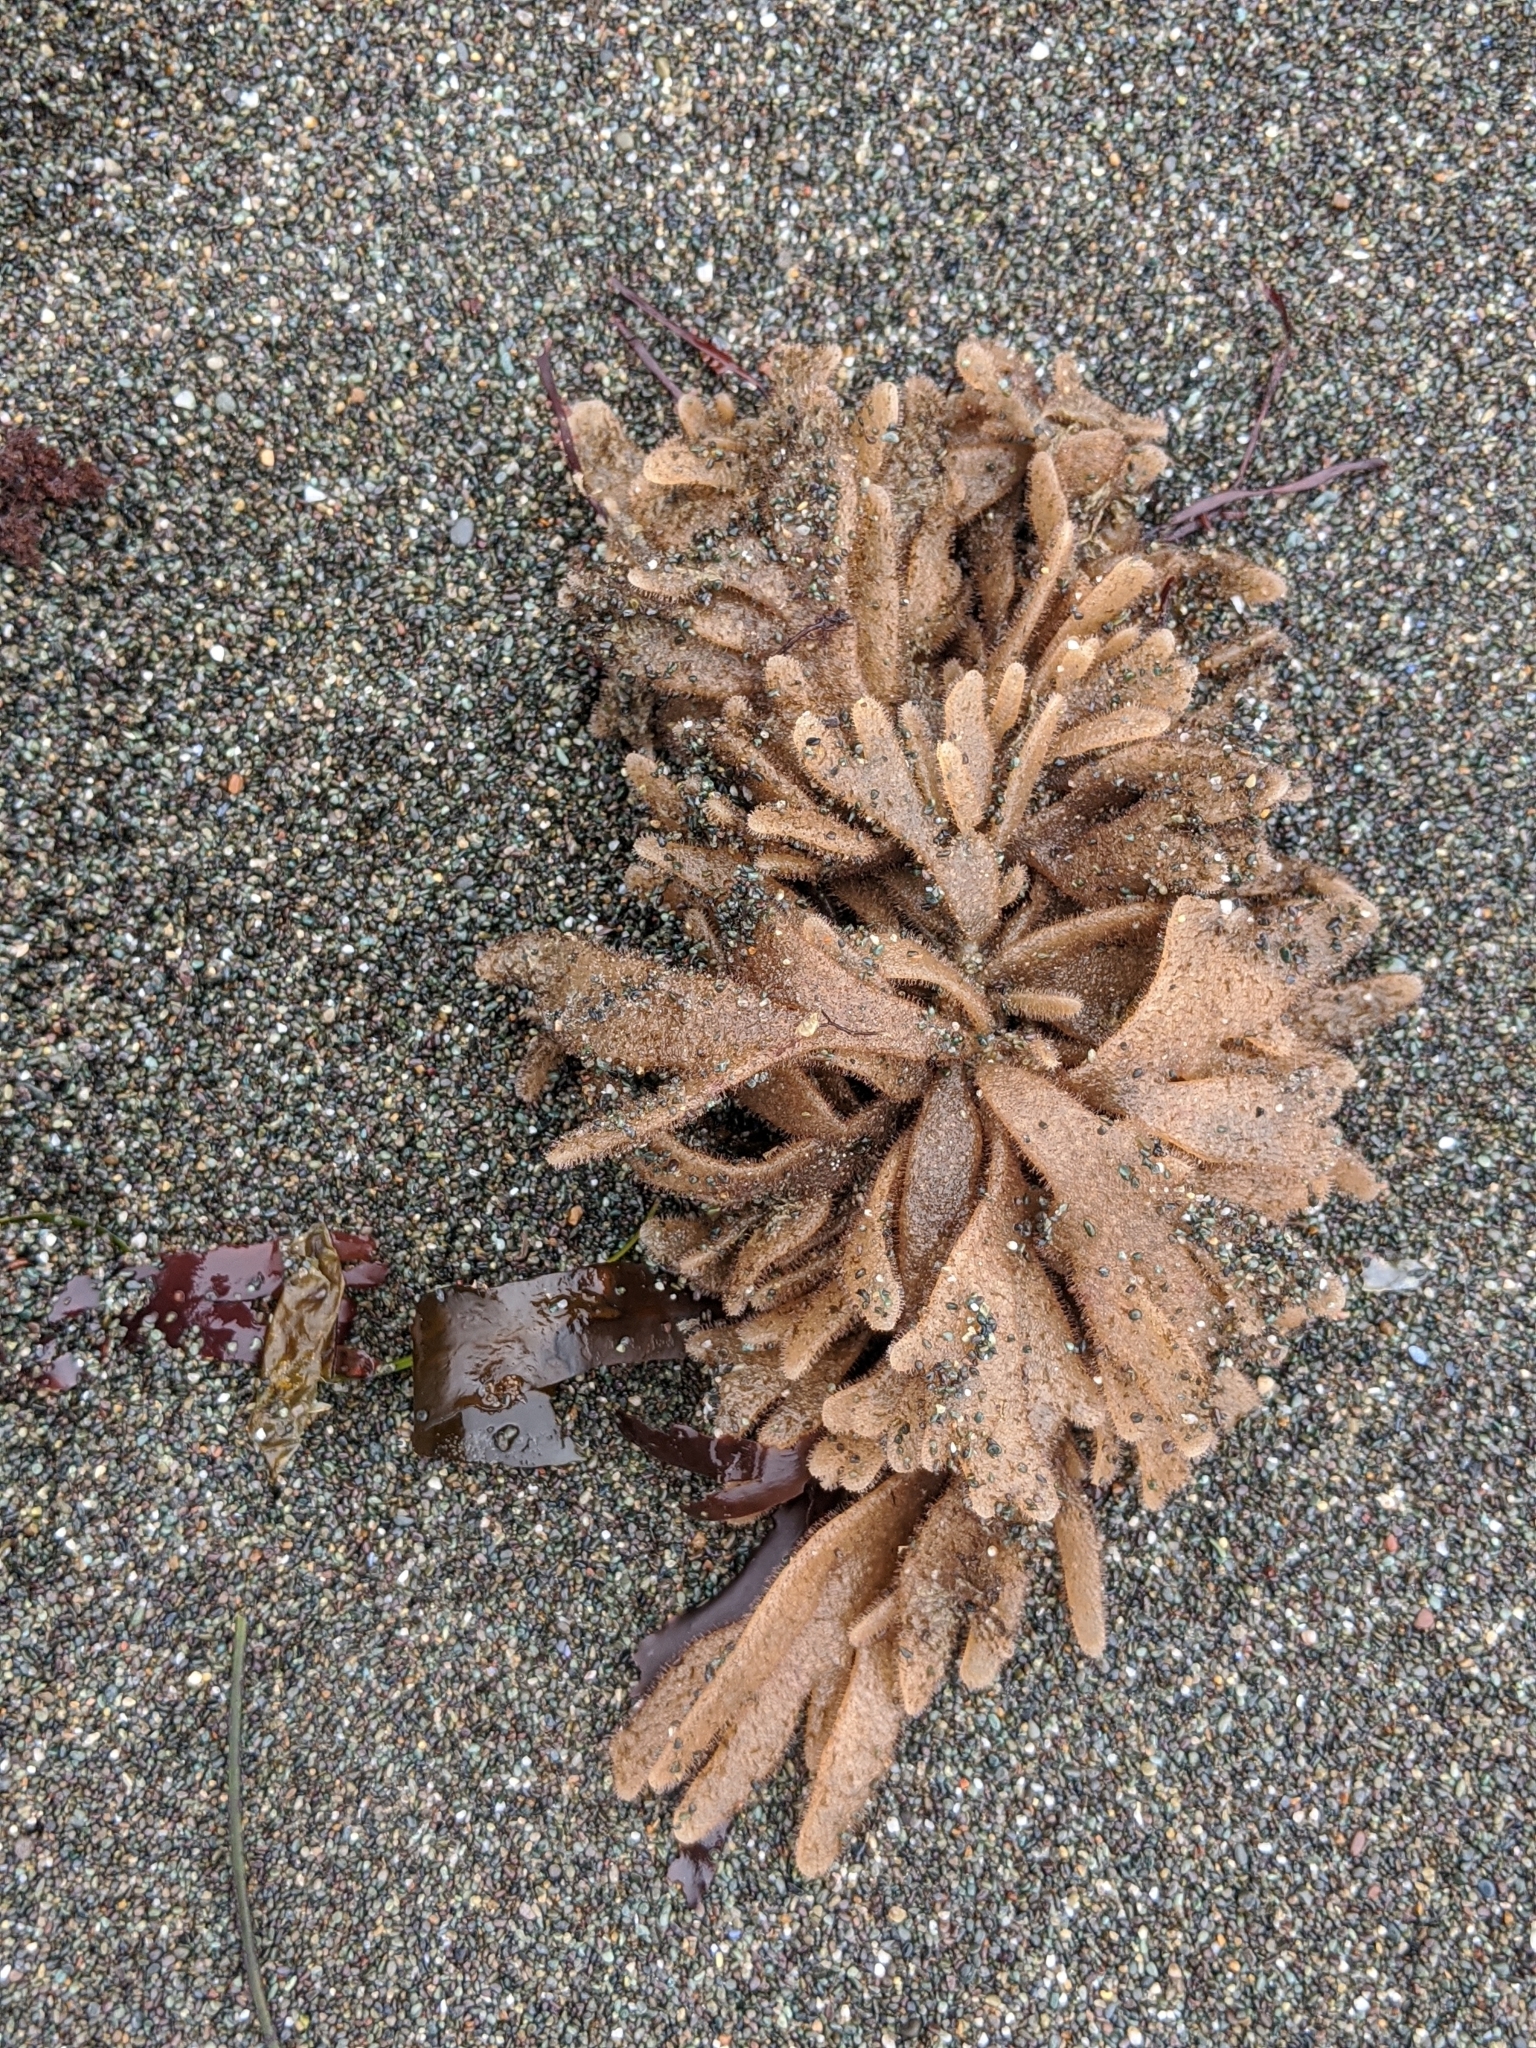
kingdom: Animalia
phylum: Bryozoa
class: Gymnolaemata
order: Ctenostomatida
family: Flustrellidridae
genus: Flustrellidra
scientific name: Flustrellidra corniculata
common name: Spiny leather bryozoan
